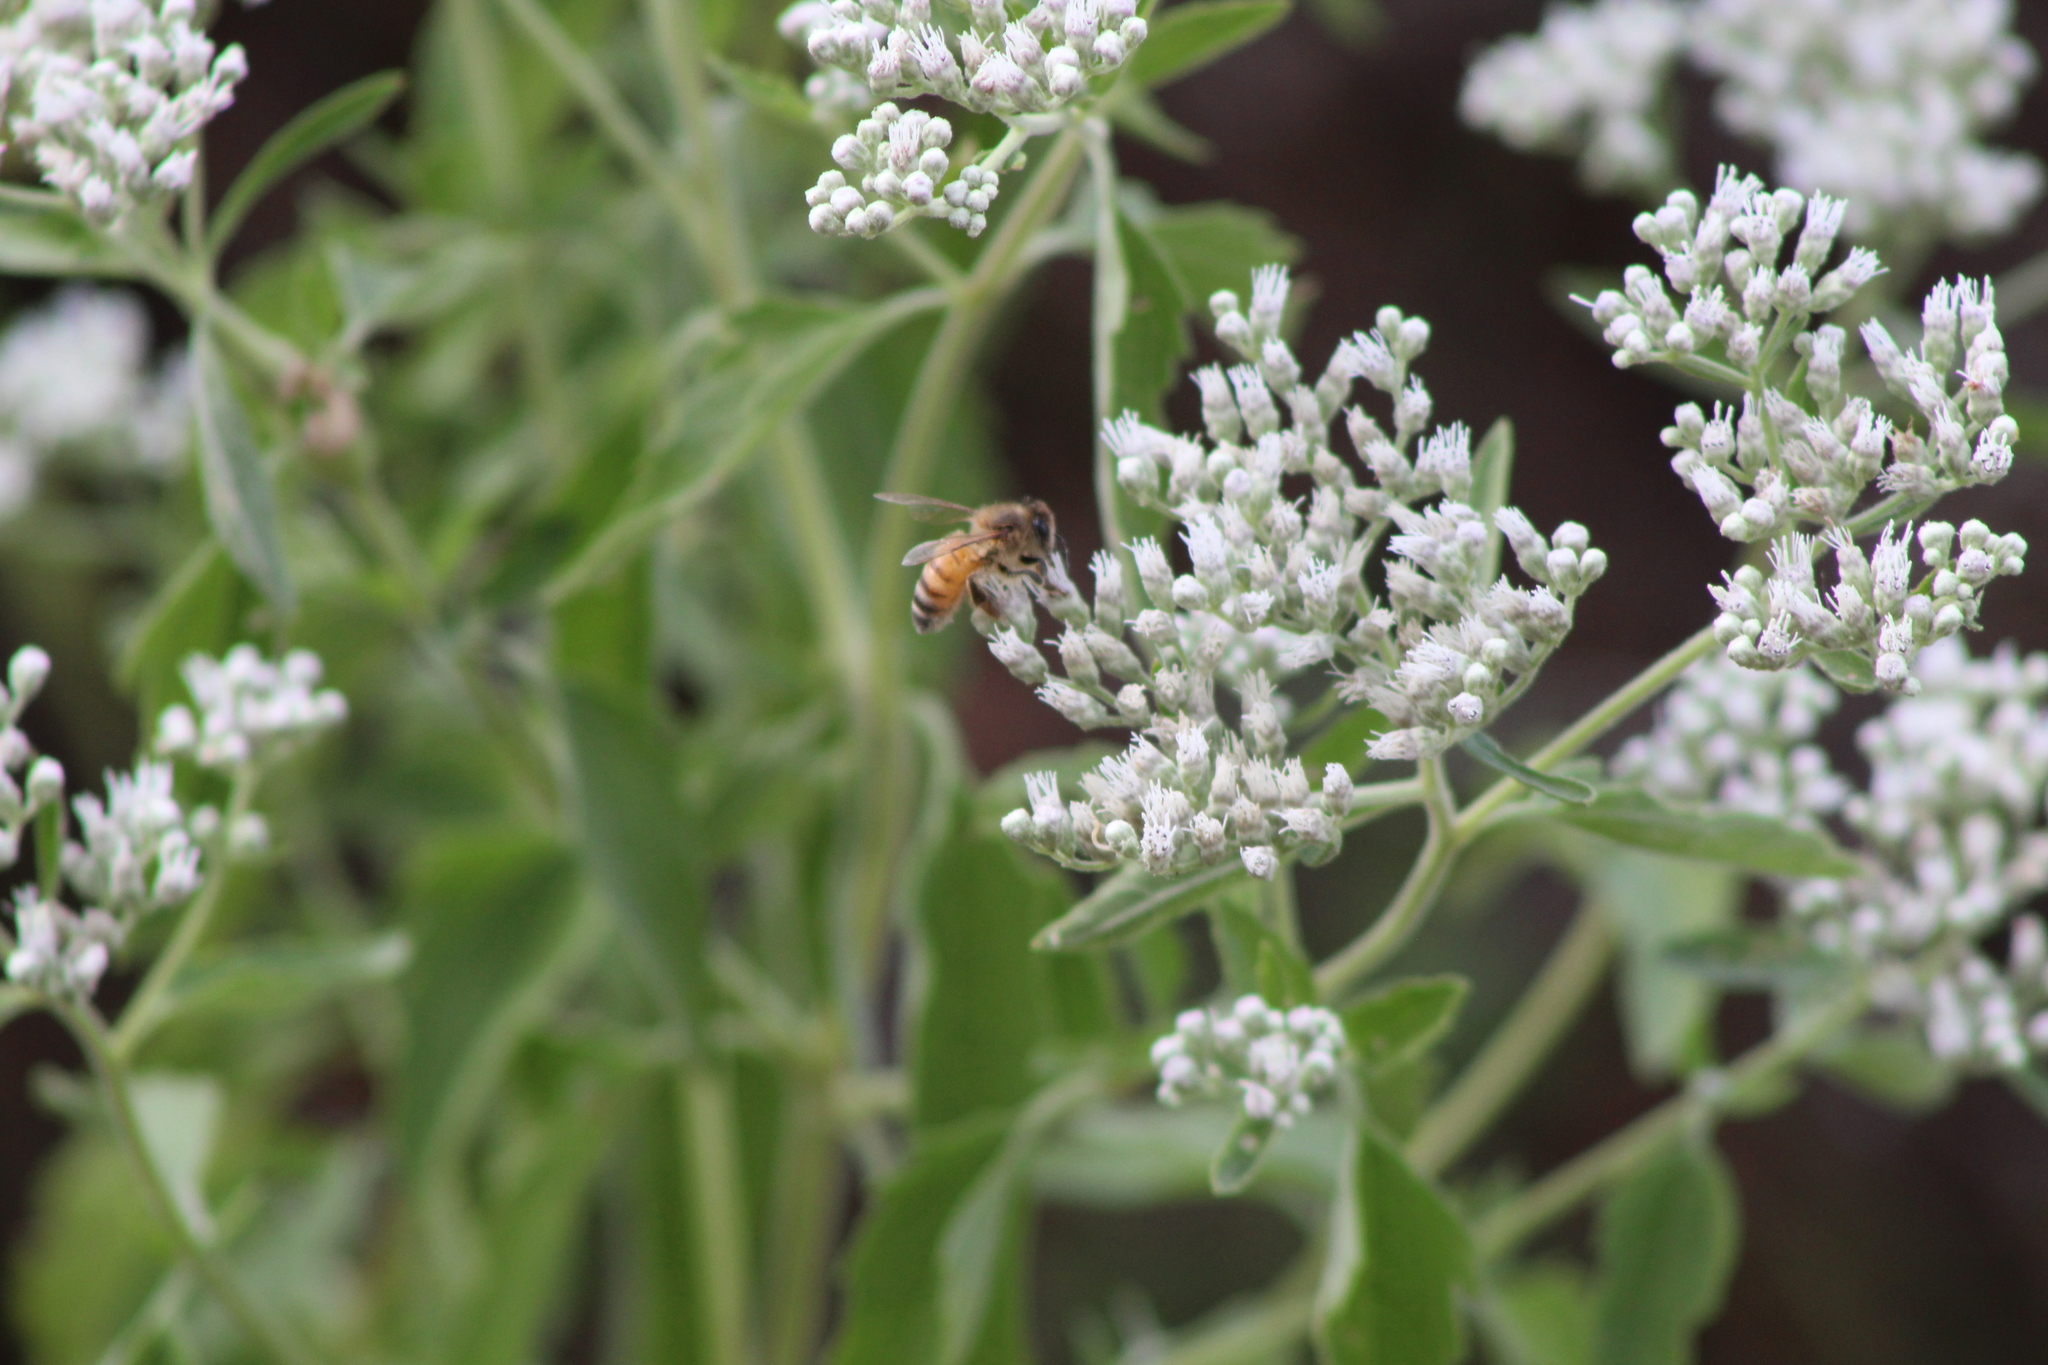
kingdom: Animalia
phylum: Arthropoda
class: Insecta
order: Hymenoptera
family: Apidae
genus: Apis
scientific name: Apis mellifera
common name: Honey bee
